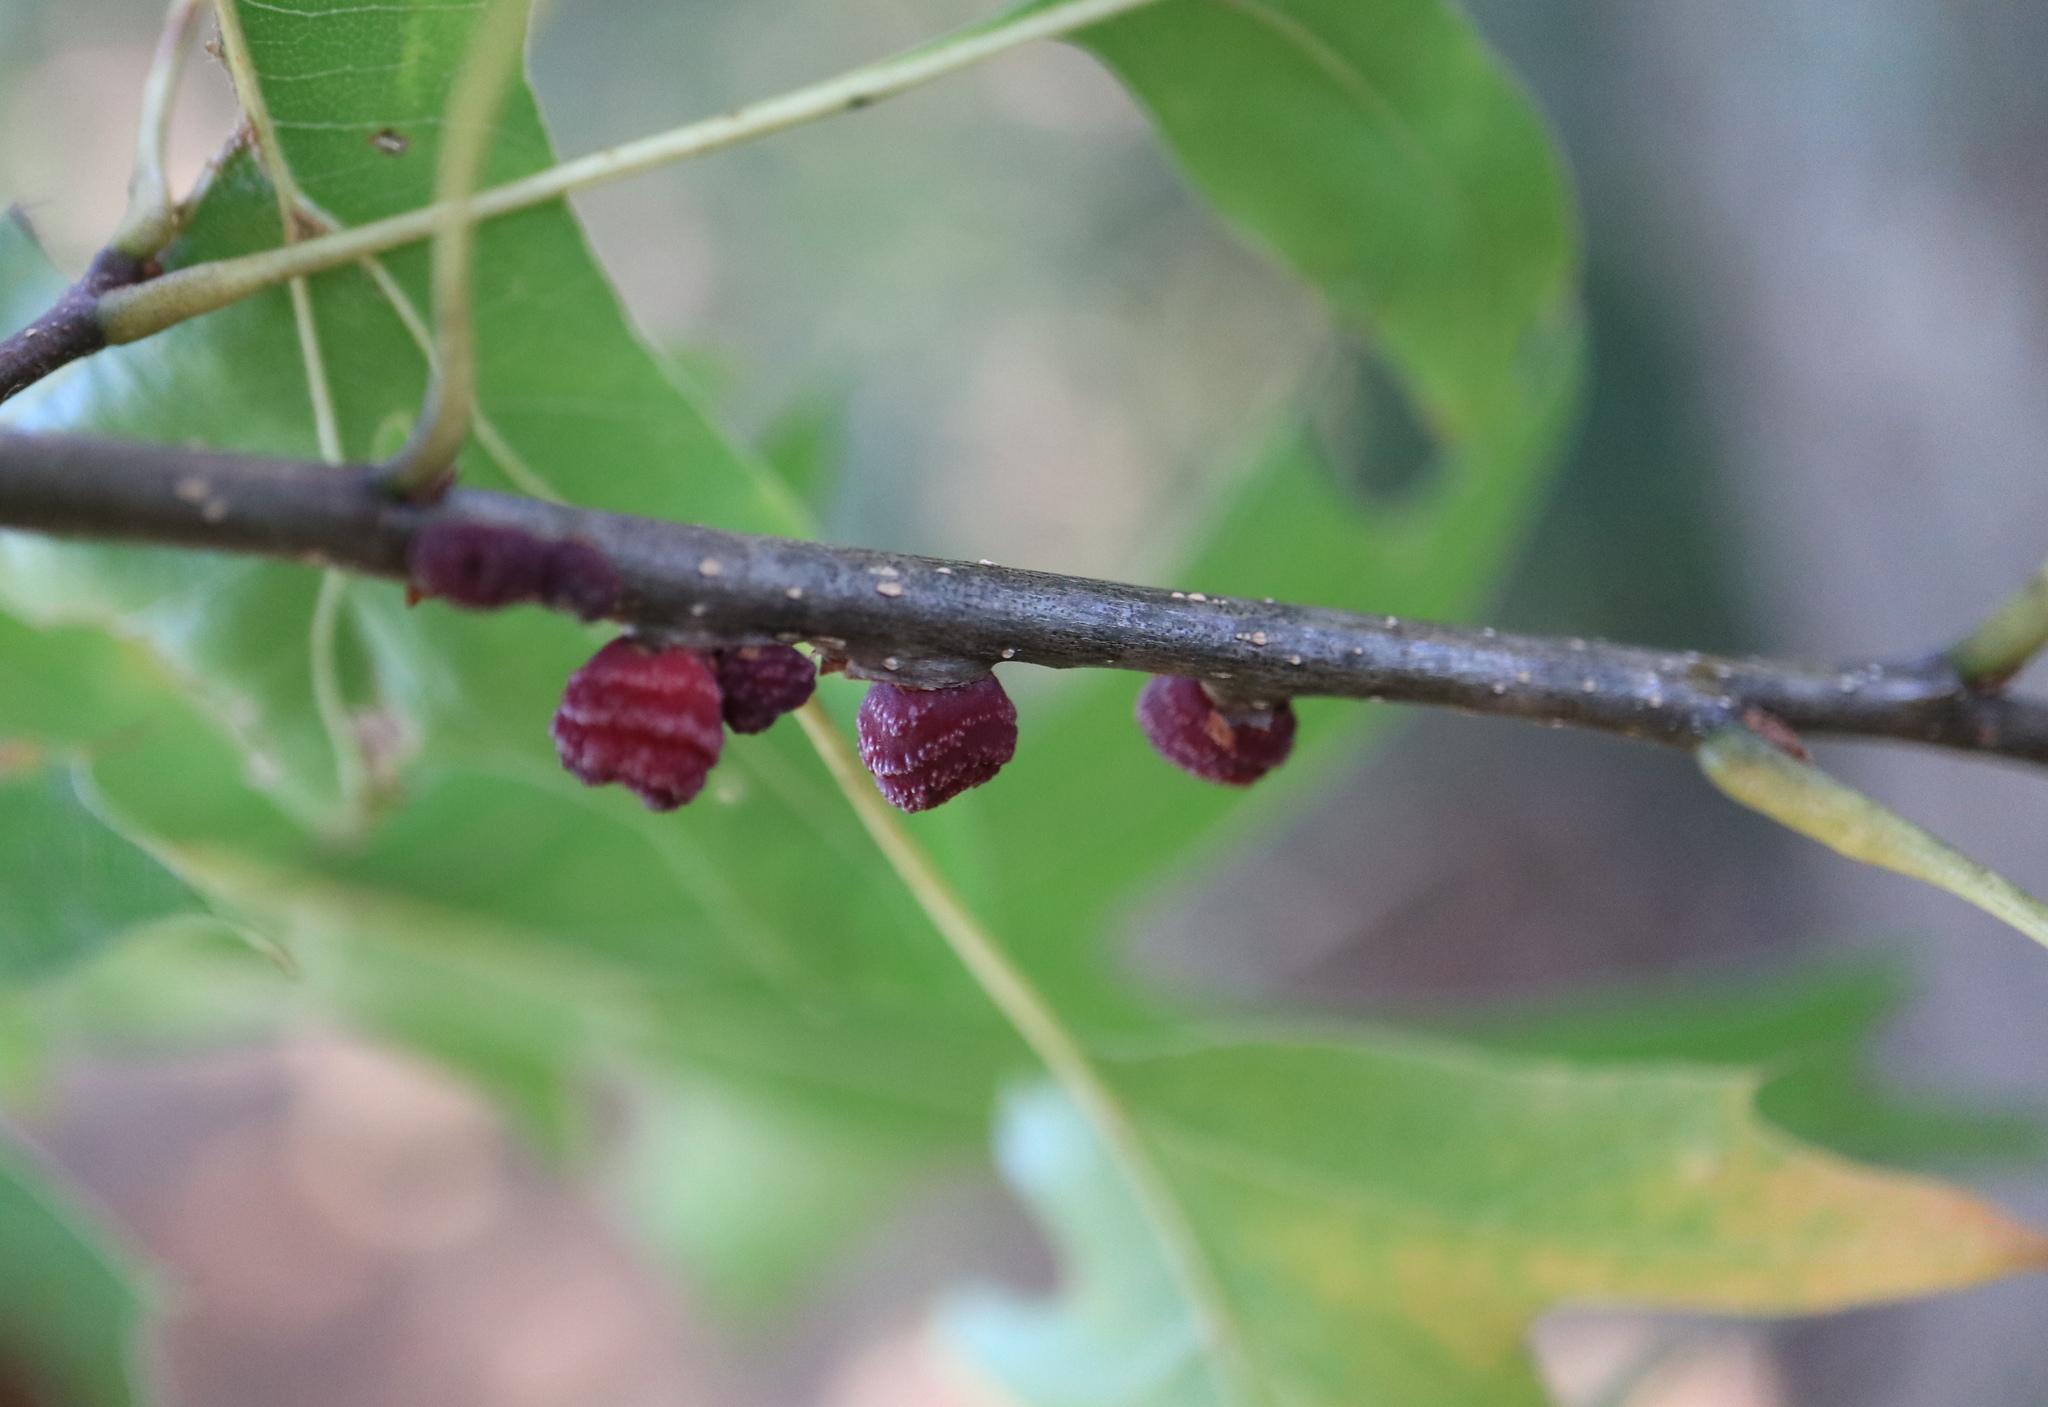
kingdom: Animalia
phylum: Arthropoda
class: Insecta
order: Hymenoptera
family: Cynipidae
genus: Kokkocynips
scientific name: Kokkocynips difficilis
